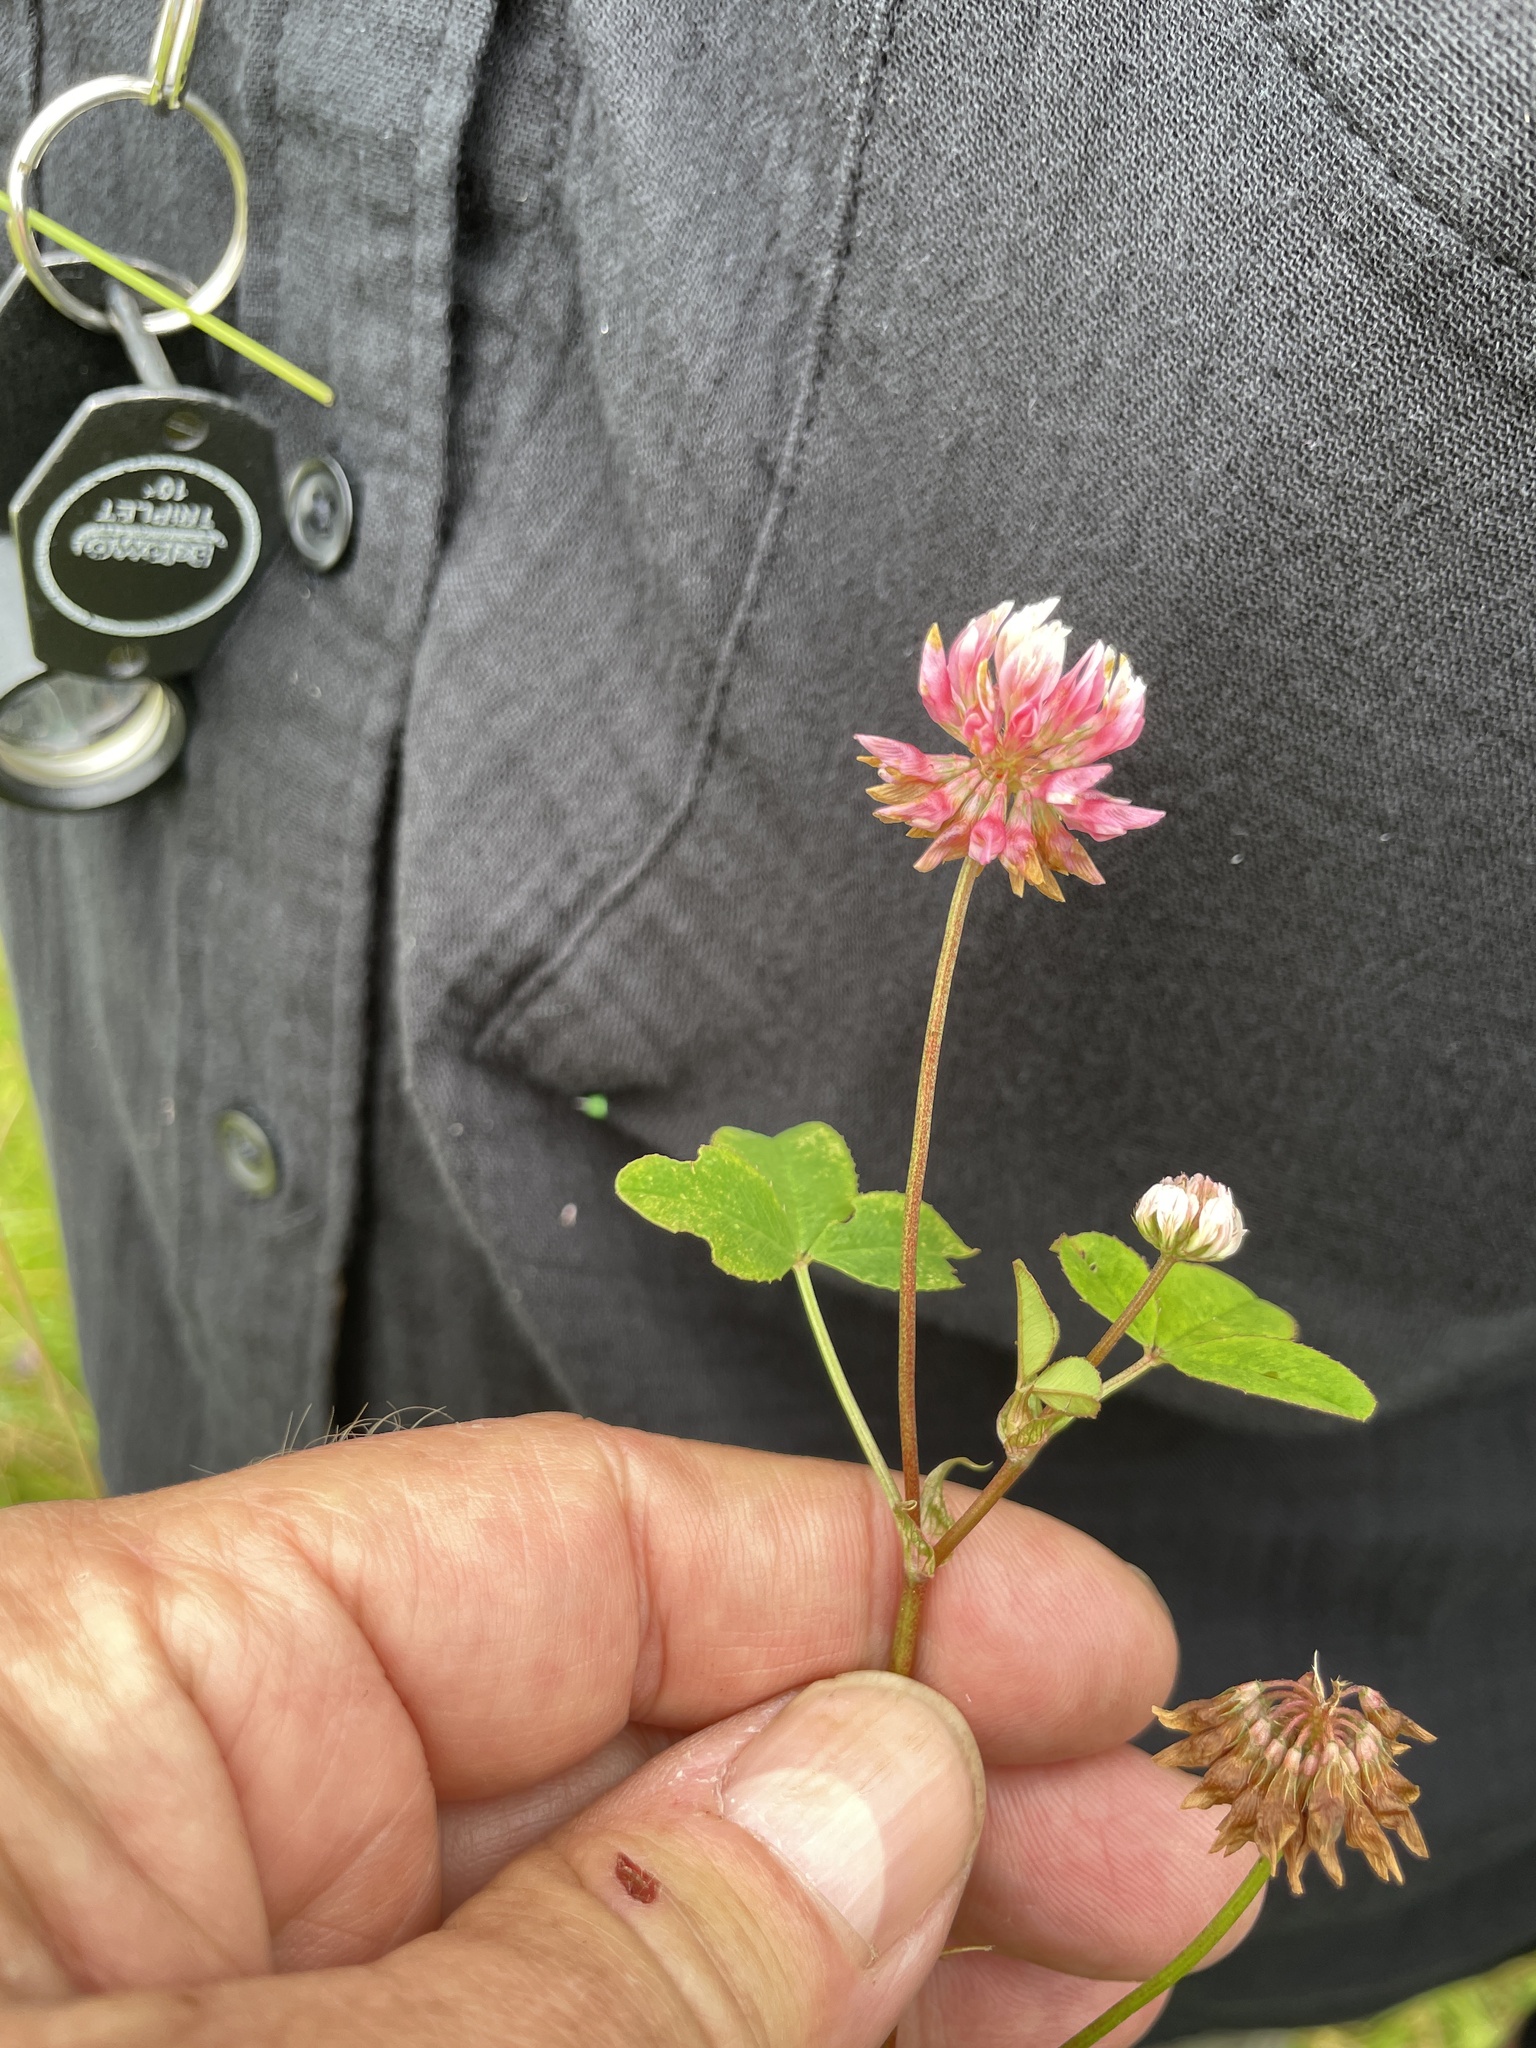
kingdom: Plantae
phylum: Tracheophyta
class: Magnoliopsida
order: Fabales
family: Fabaceae
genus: Trifolium
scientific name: Trifolium hybridum
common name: Alsike clover
